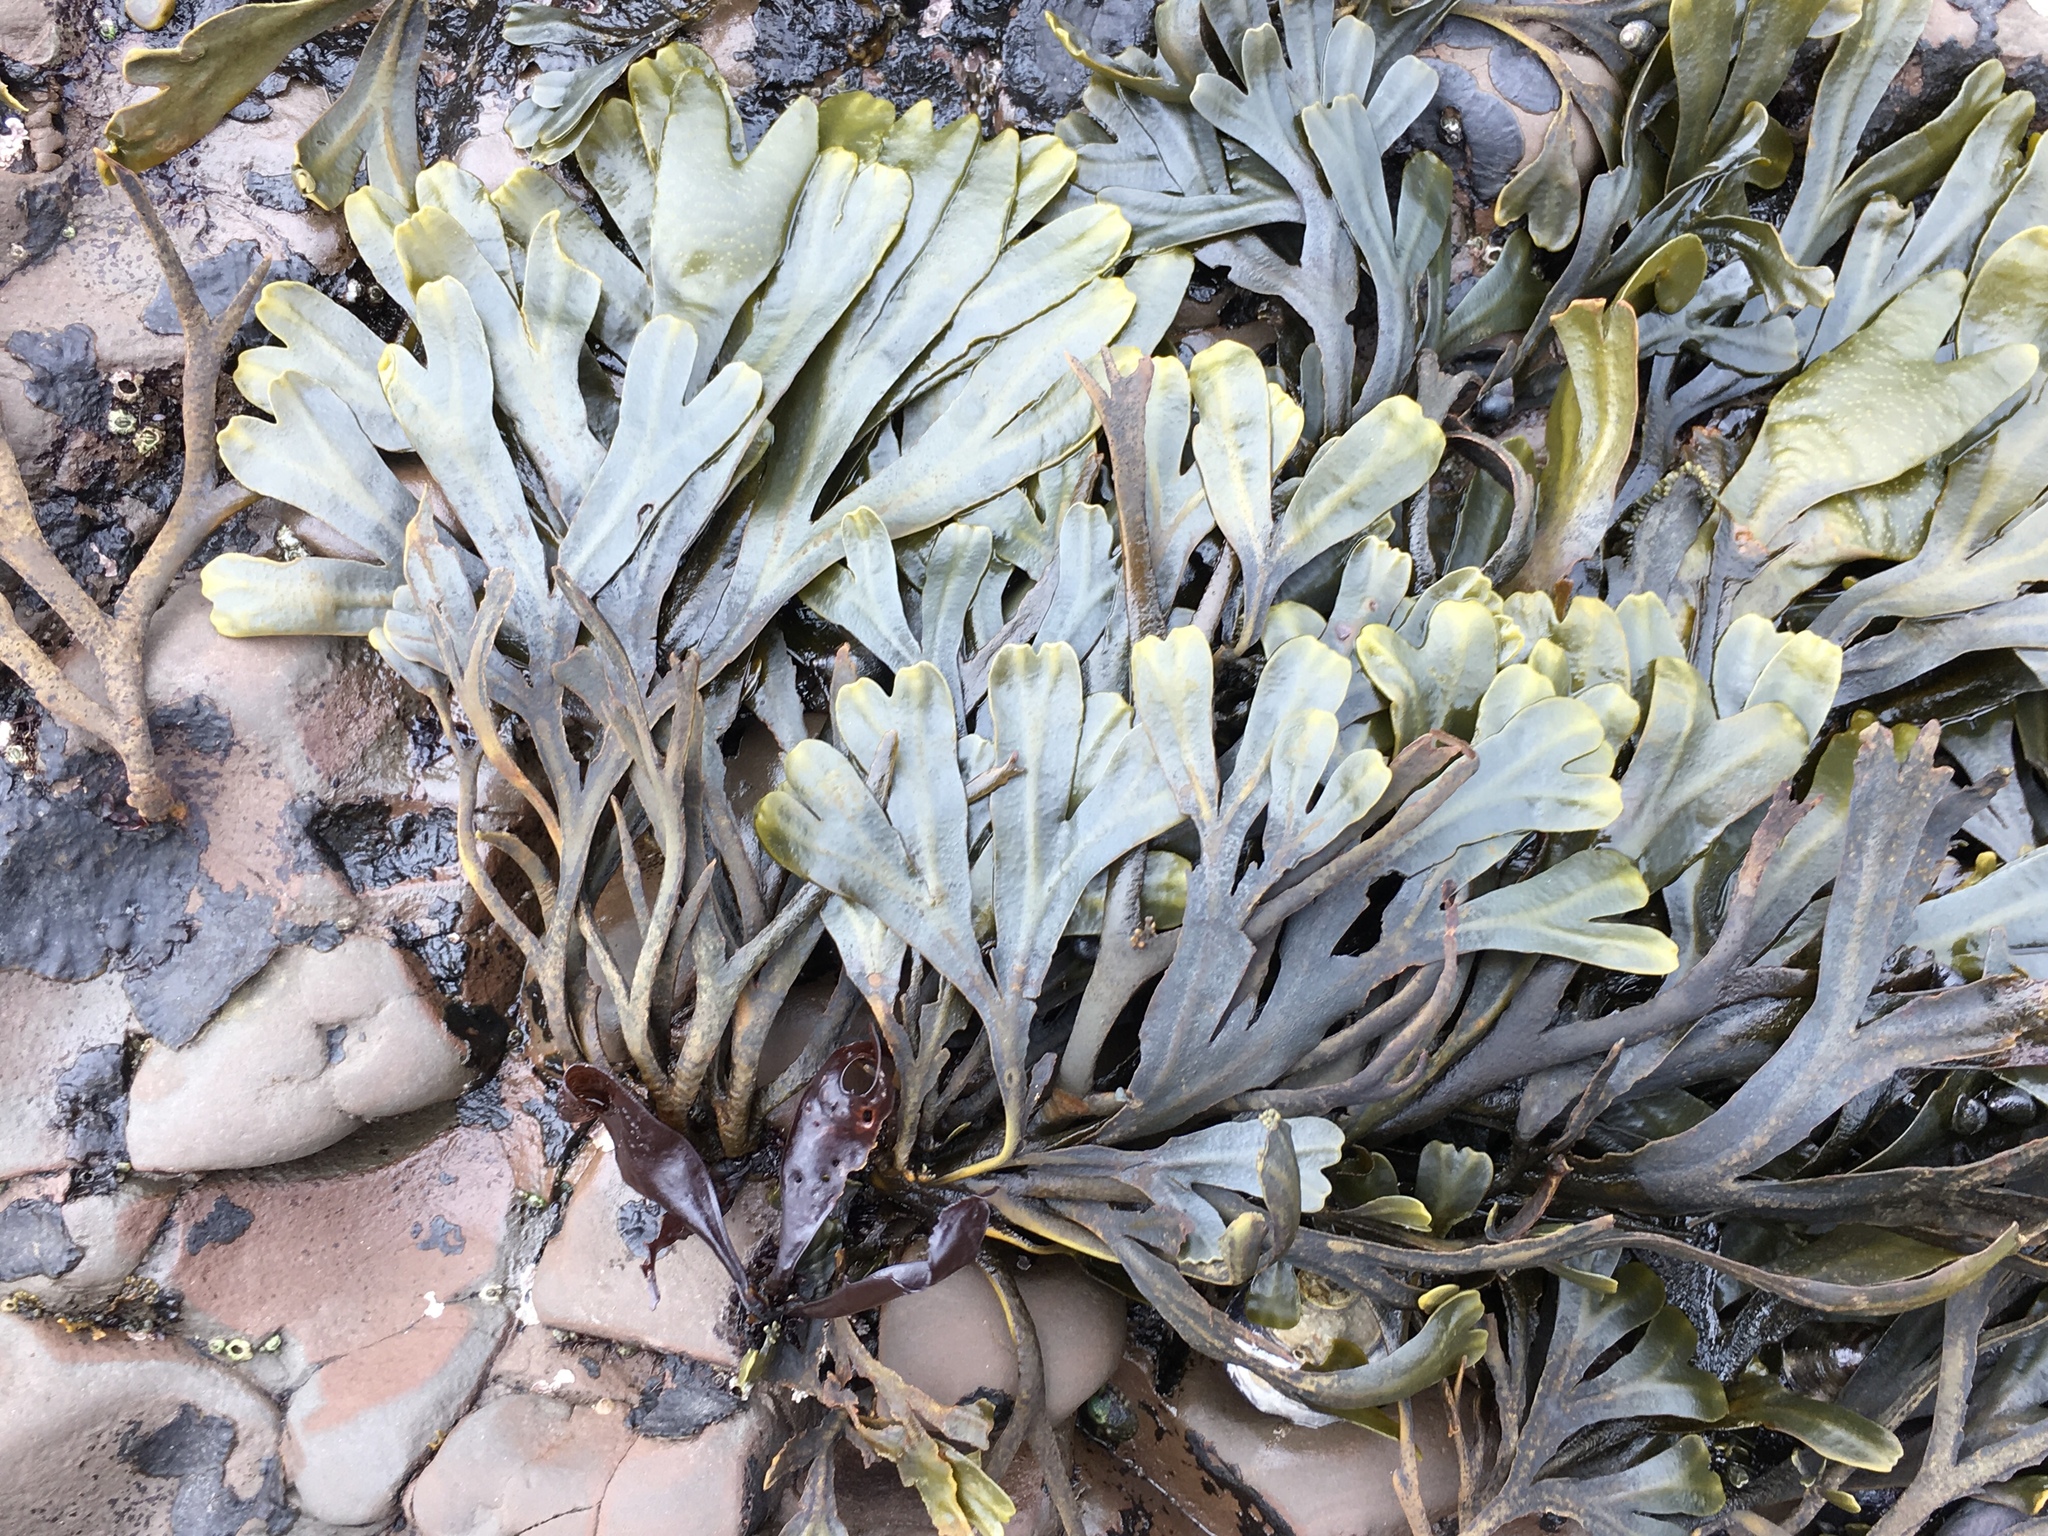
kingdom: Chromista
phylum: Ochrophyta
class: Phaeophyceae
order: Fucales
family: Fucaceae
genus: Fucus
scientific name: Fucus distichus
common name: Rockweed
